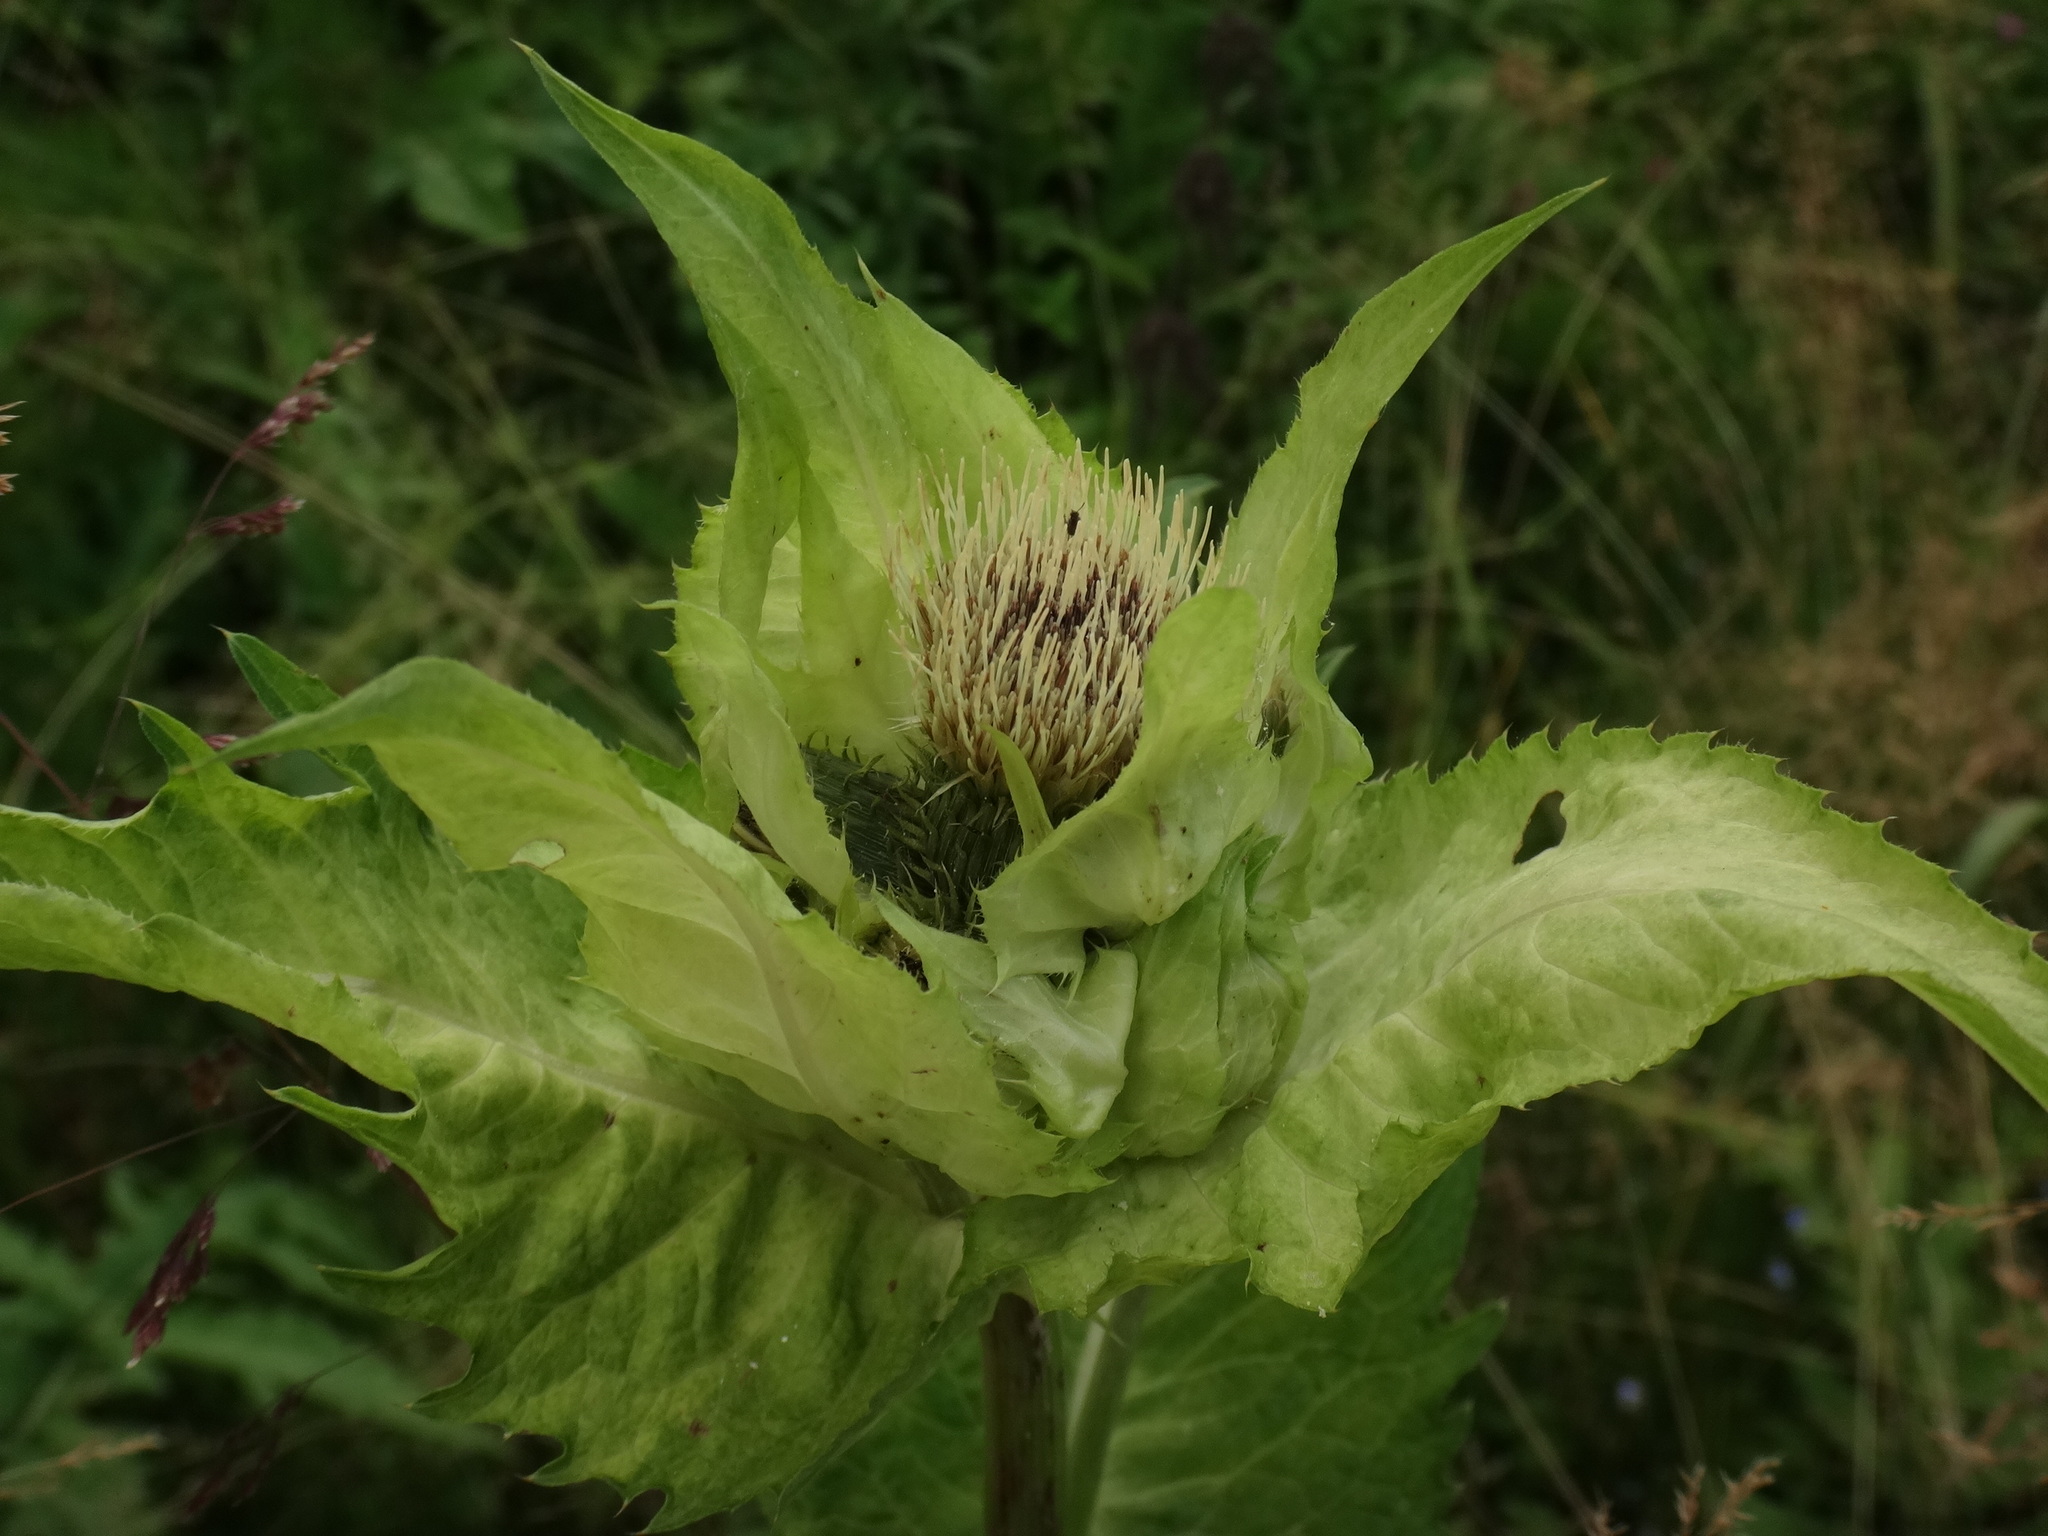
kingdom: Plantae
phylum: Tracheophyta
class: Magnoliopsida
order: Asterales
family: Asteraceae
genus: Cirsium
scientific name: Cirsium oleraceum
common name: Cabbage thistle
